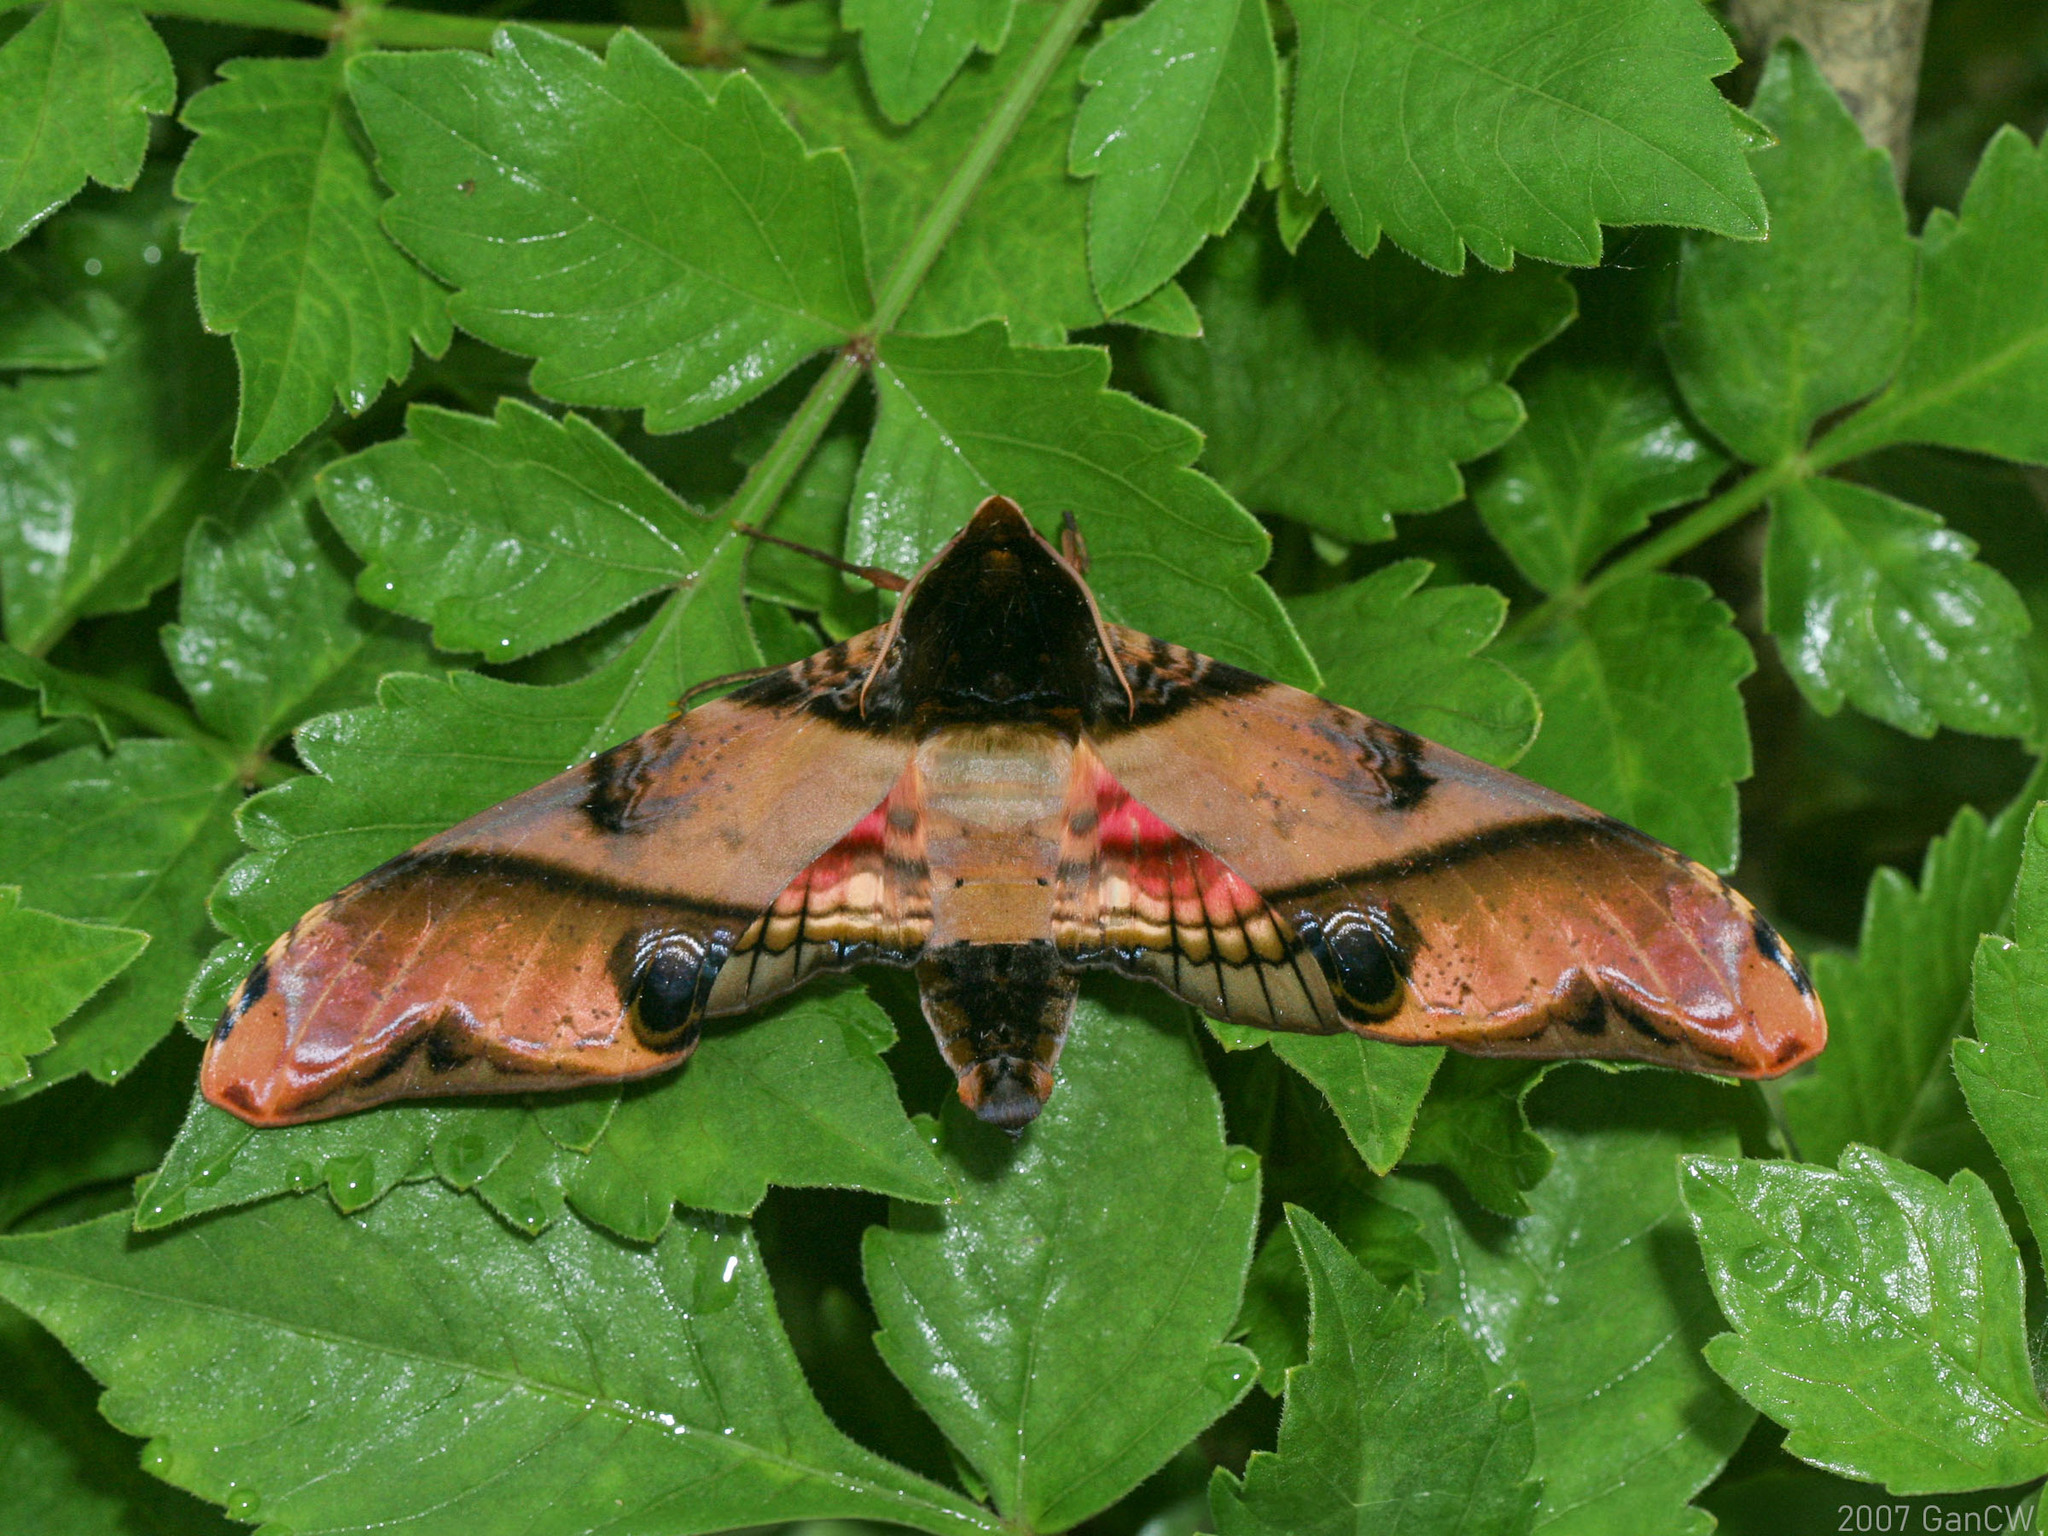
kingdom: Animalia
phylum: Arthropoda
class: Insecta
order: Lepidoptera
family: Sphingidae
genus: Amplypterus
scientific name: Amplypterus panopus
